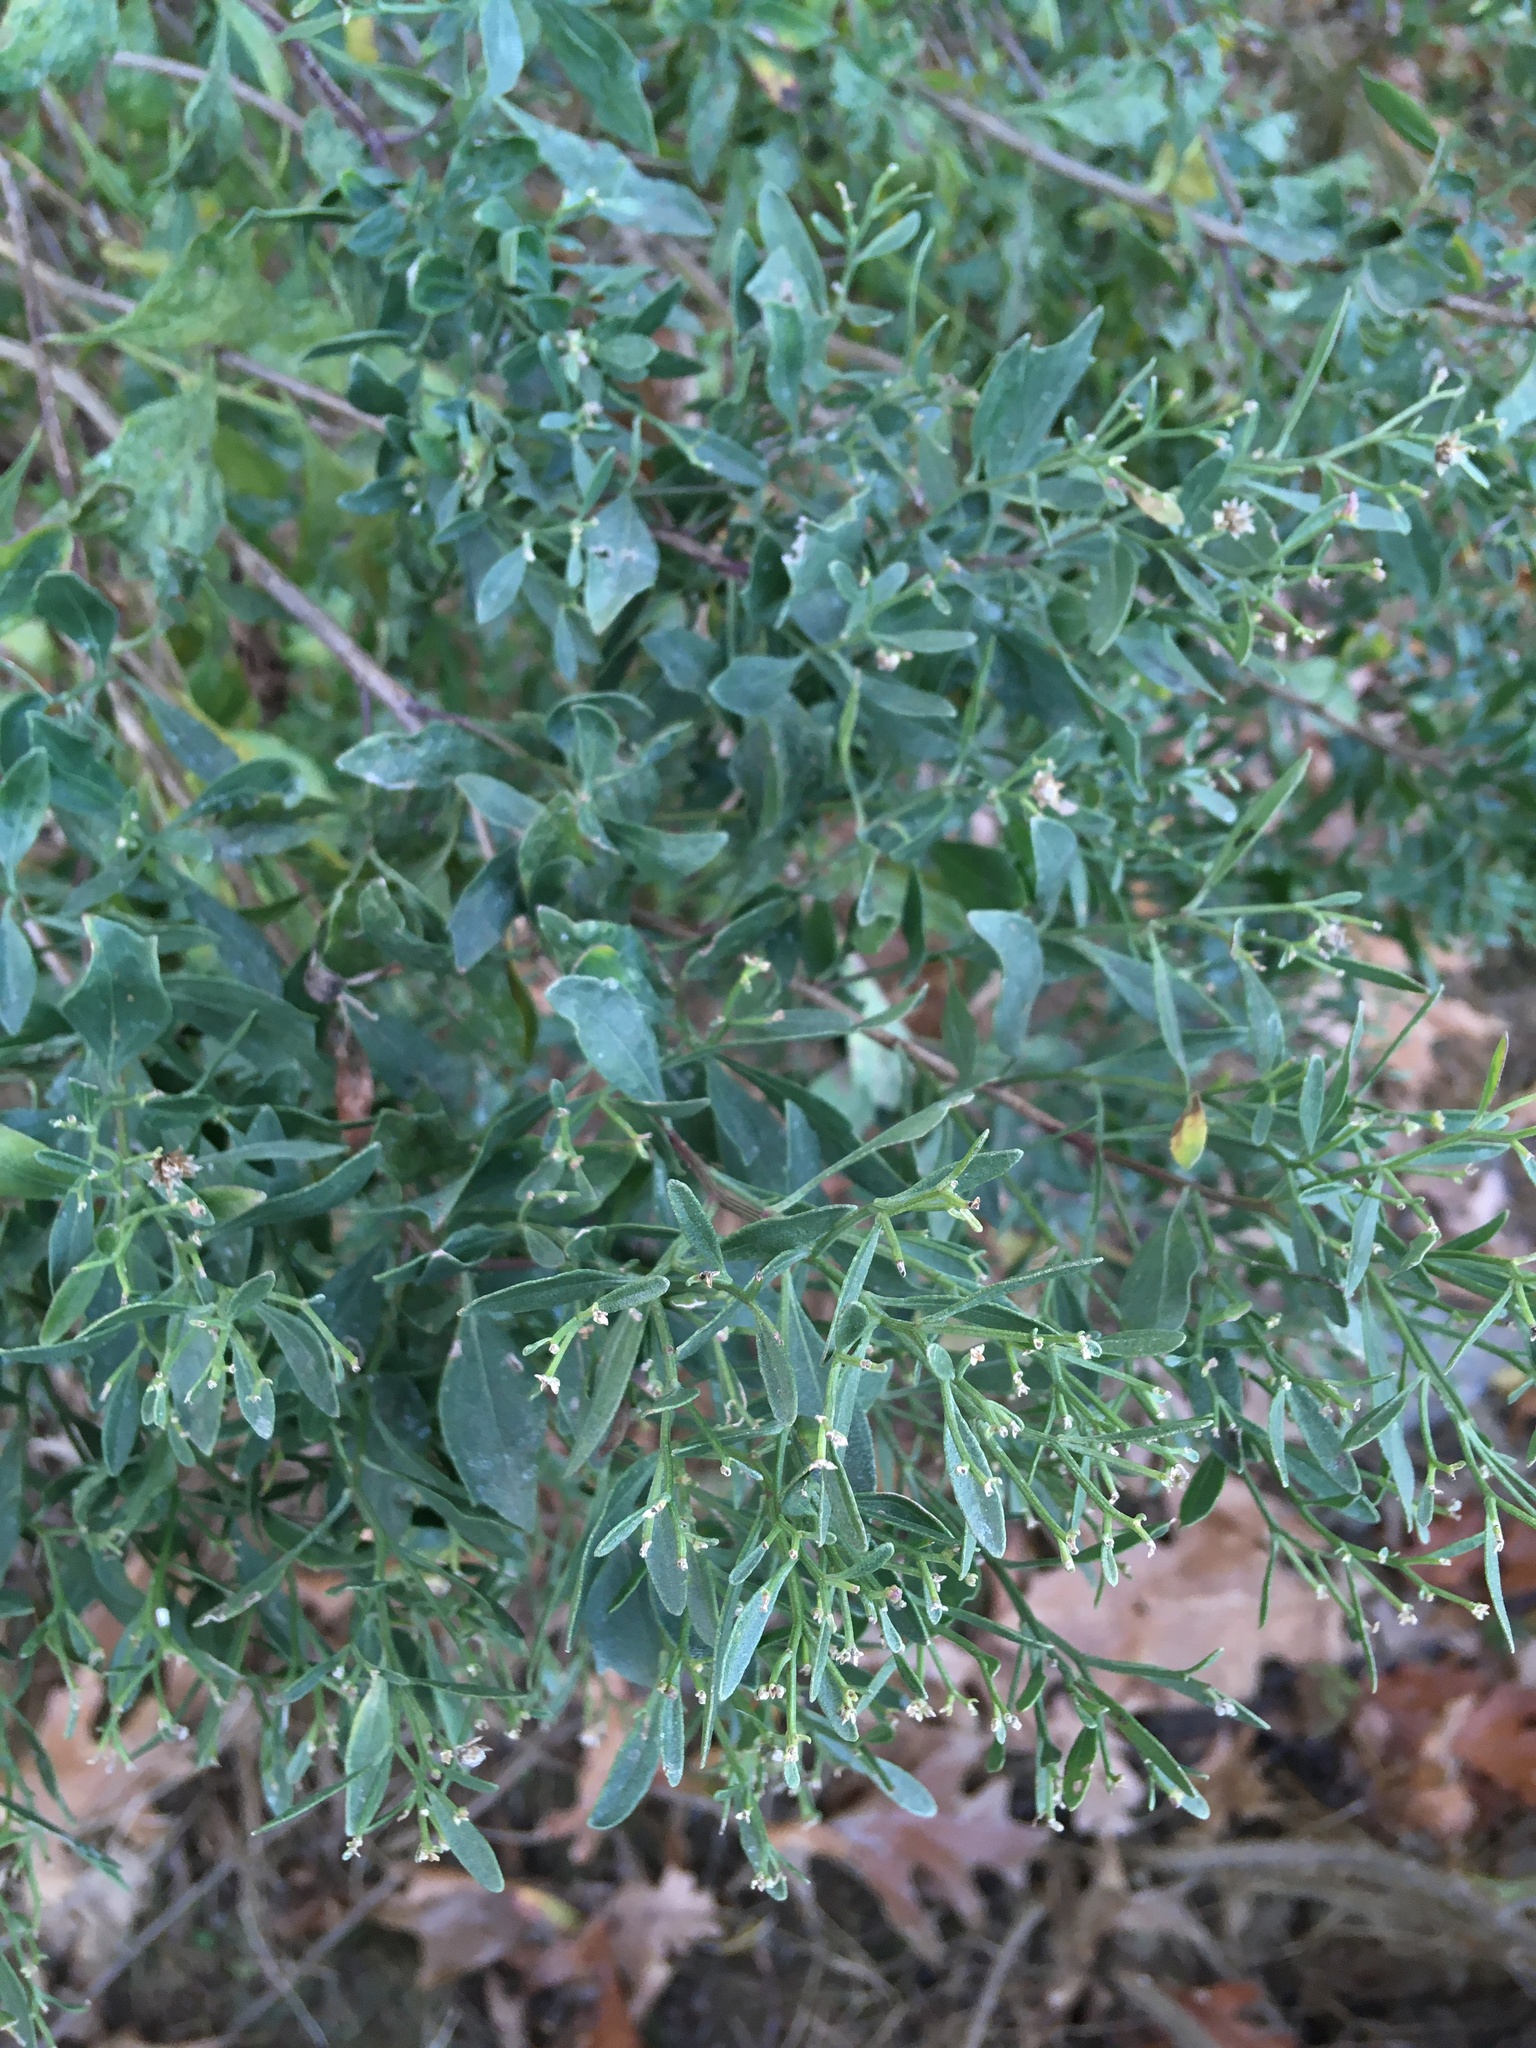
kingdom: Plantae
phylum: Tracheophyta
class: Magnoliopsida
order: Asterales
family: Asteraceae
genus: Baccharis
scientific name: Baccharis halimifolia
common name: Eastern baccharis
